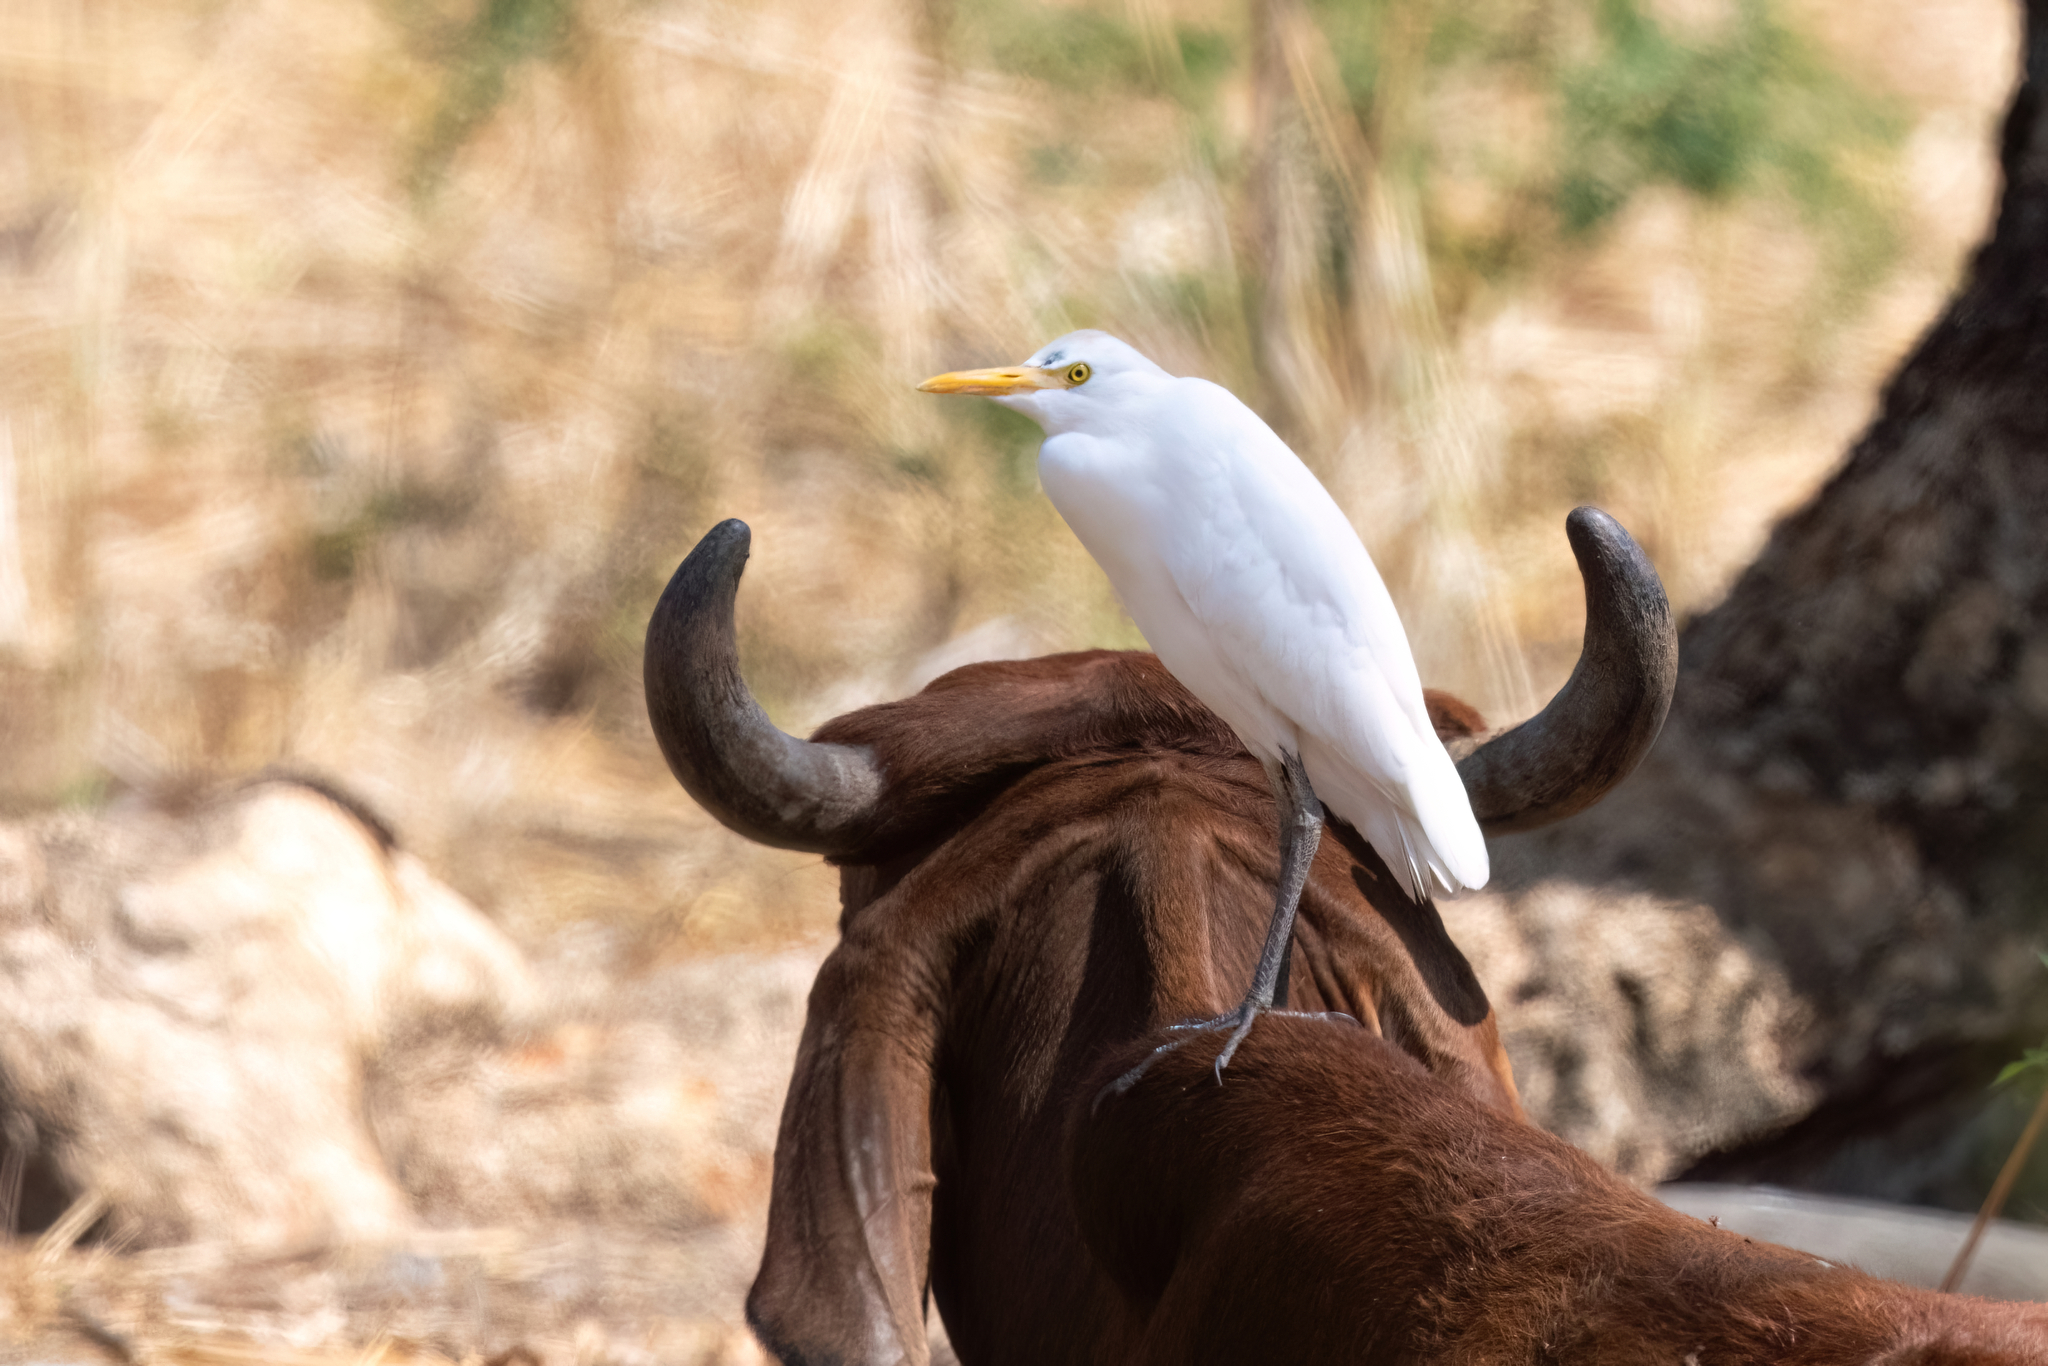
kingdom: Animalia
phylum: Chordata
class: Aves
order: Pelecaniformes
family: Ardeidae
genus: Bubulcus
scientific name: Bubulcus ibis
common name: Cattle egret
